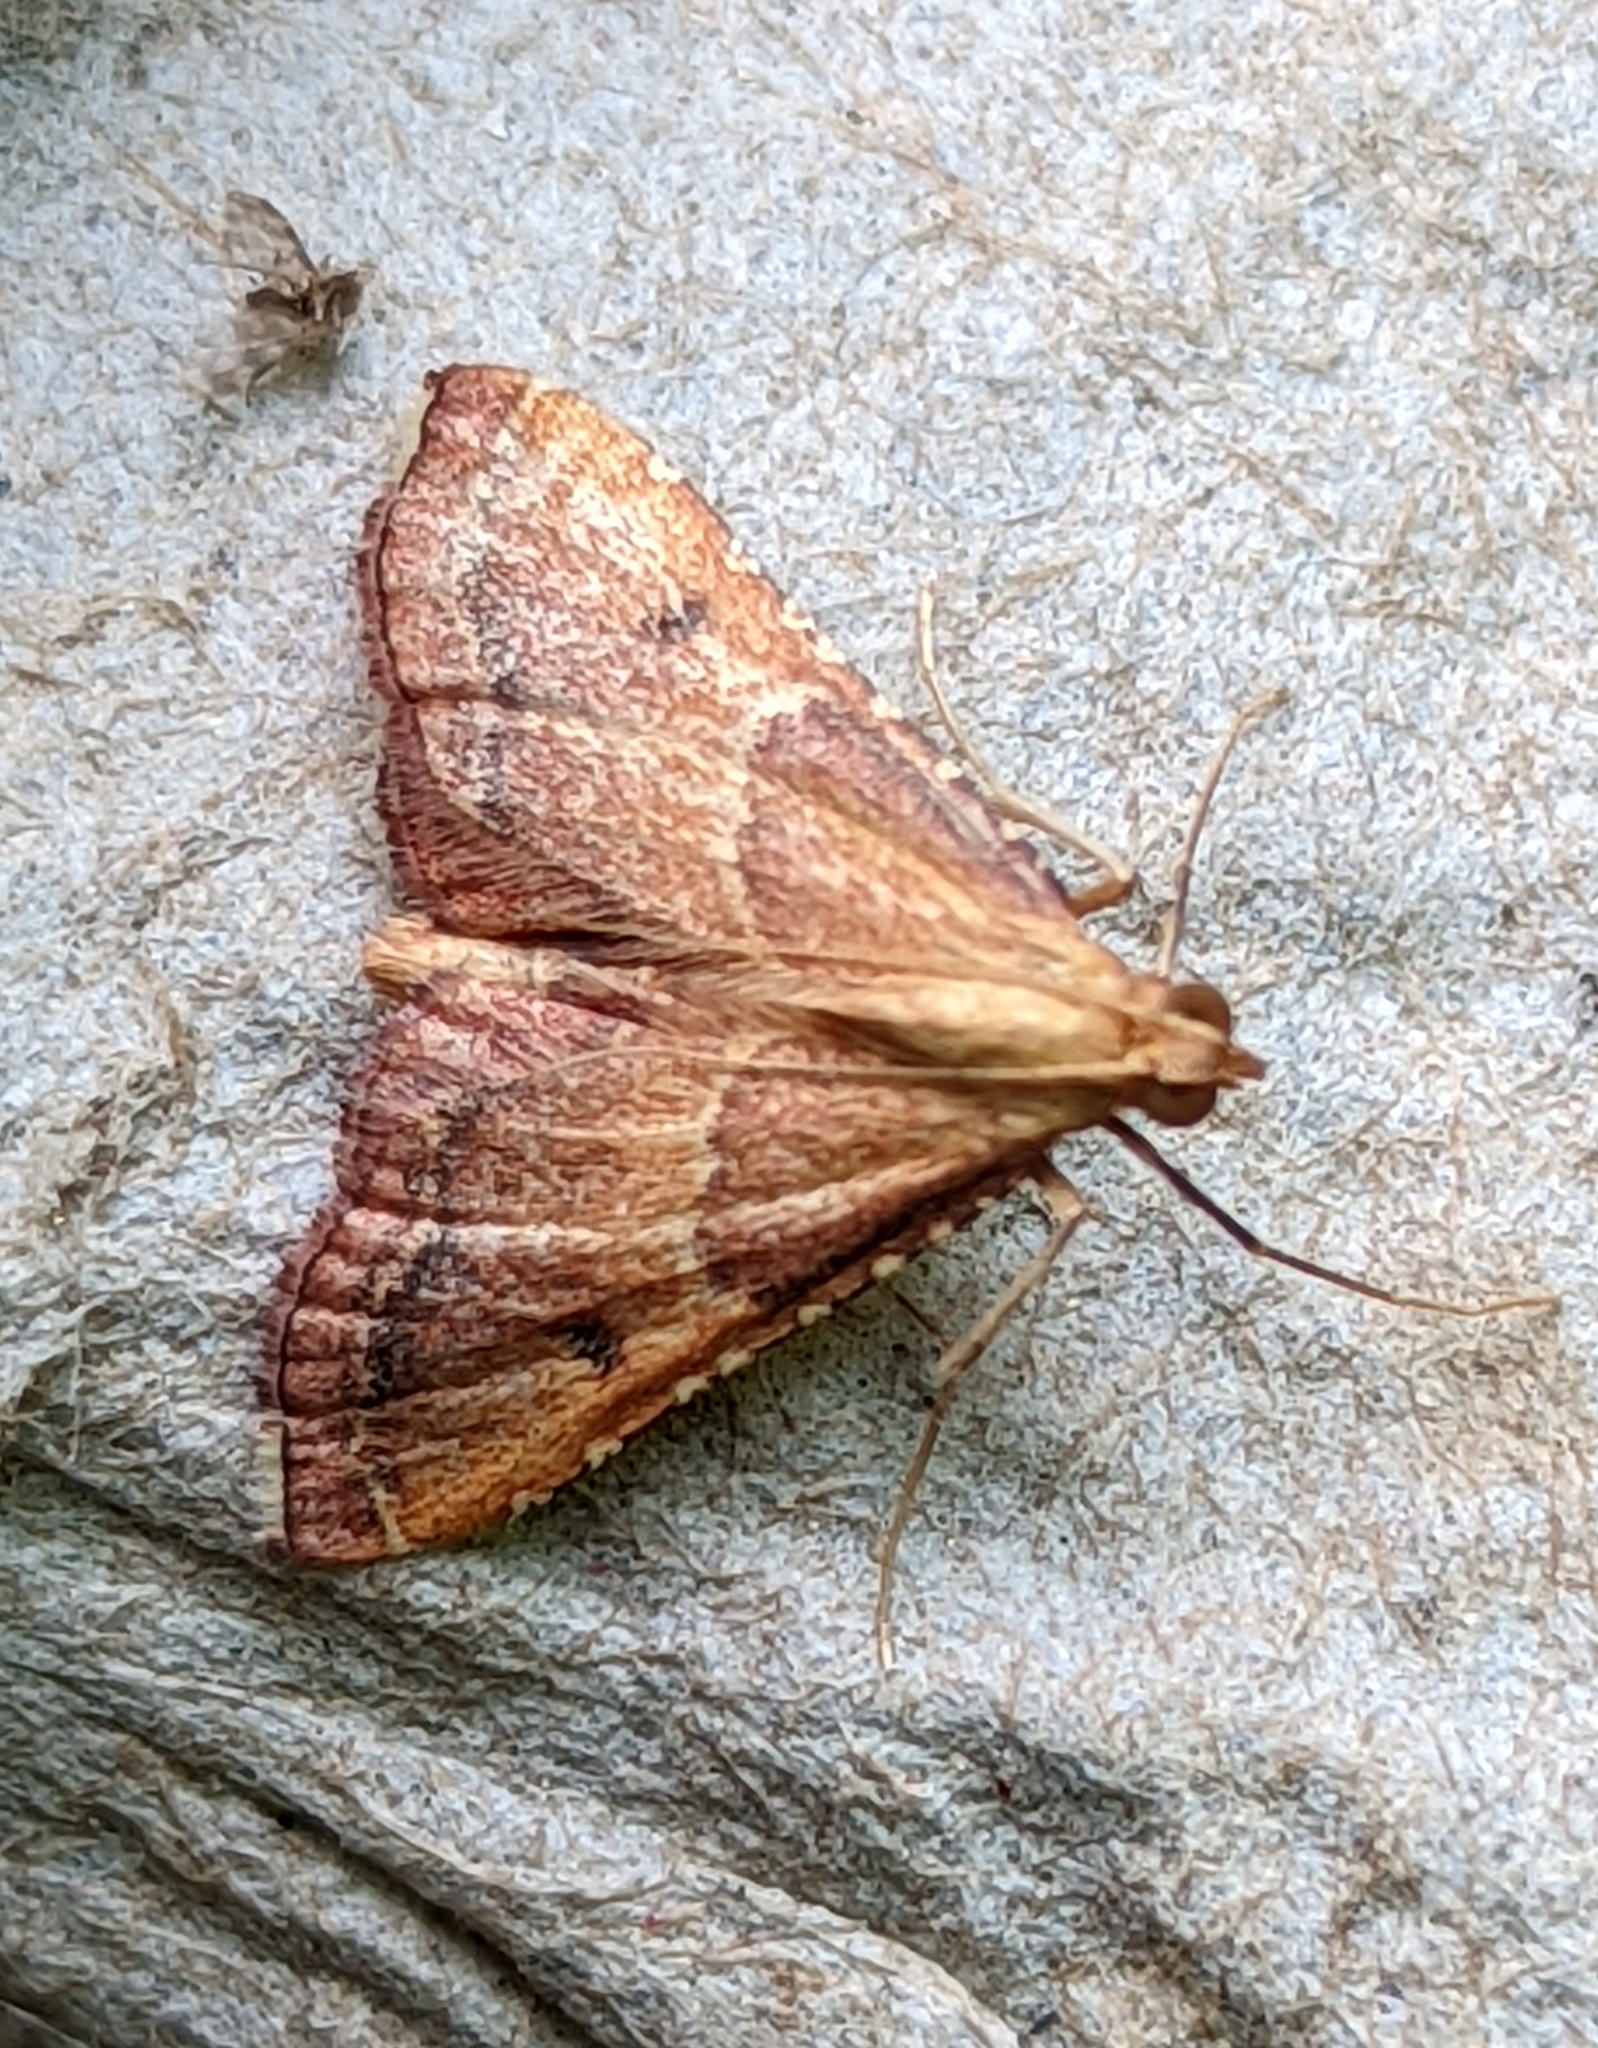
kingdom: Animalia
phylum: Arthropoda
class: Insecta
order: Lepidoptera
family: Pyralidae
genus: Endotricha
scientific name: Endotricha flammealis
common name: Rosy tabby
